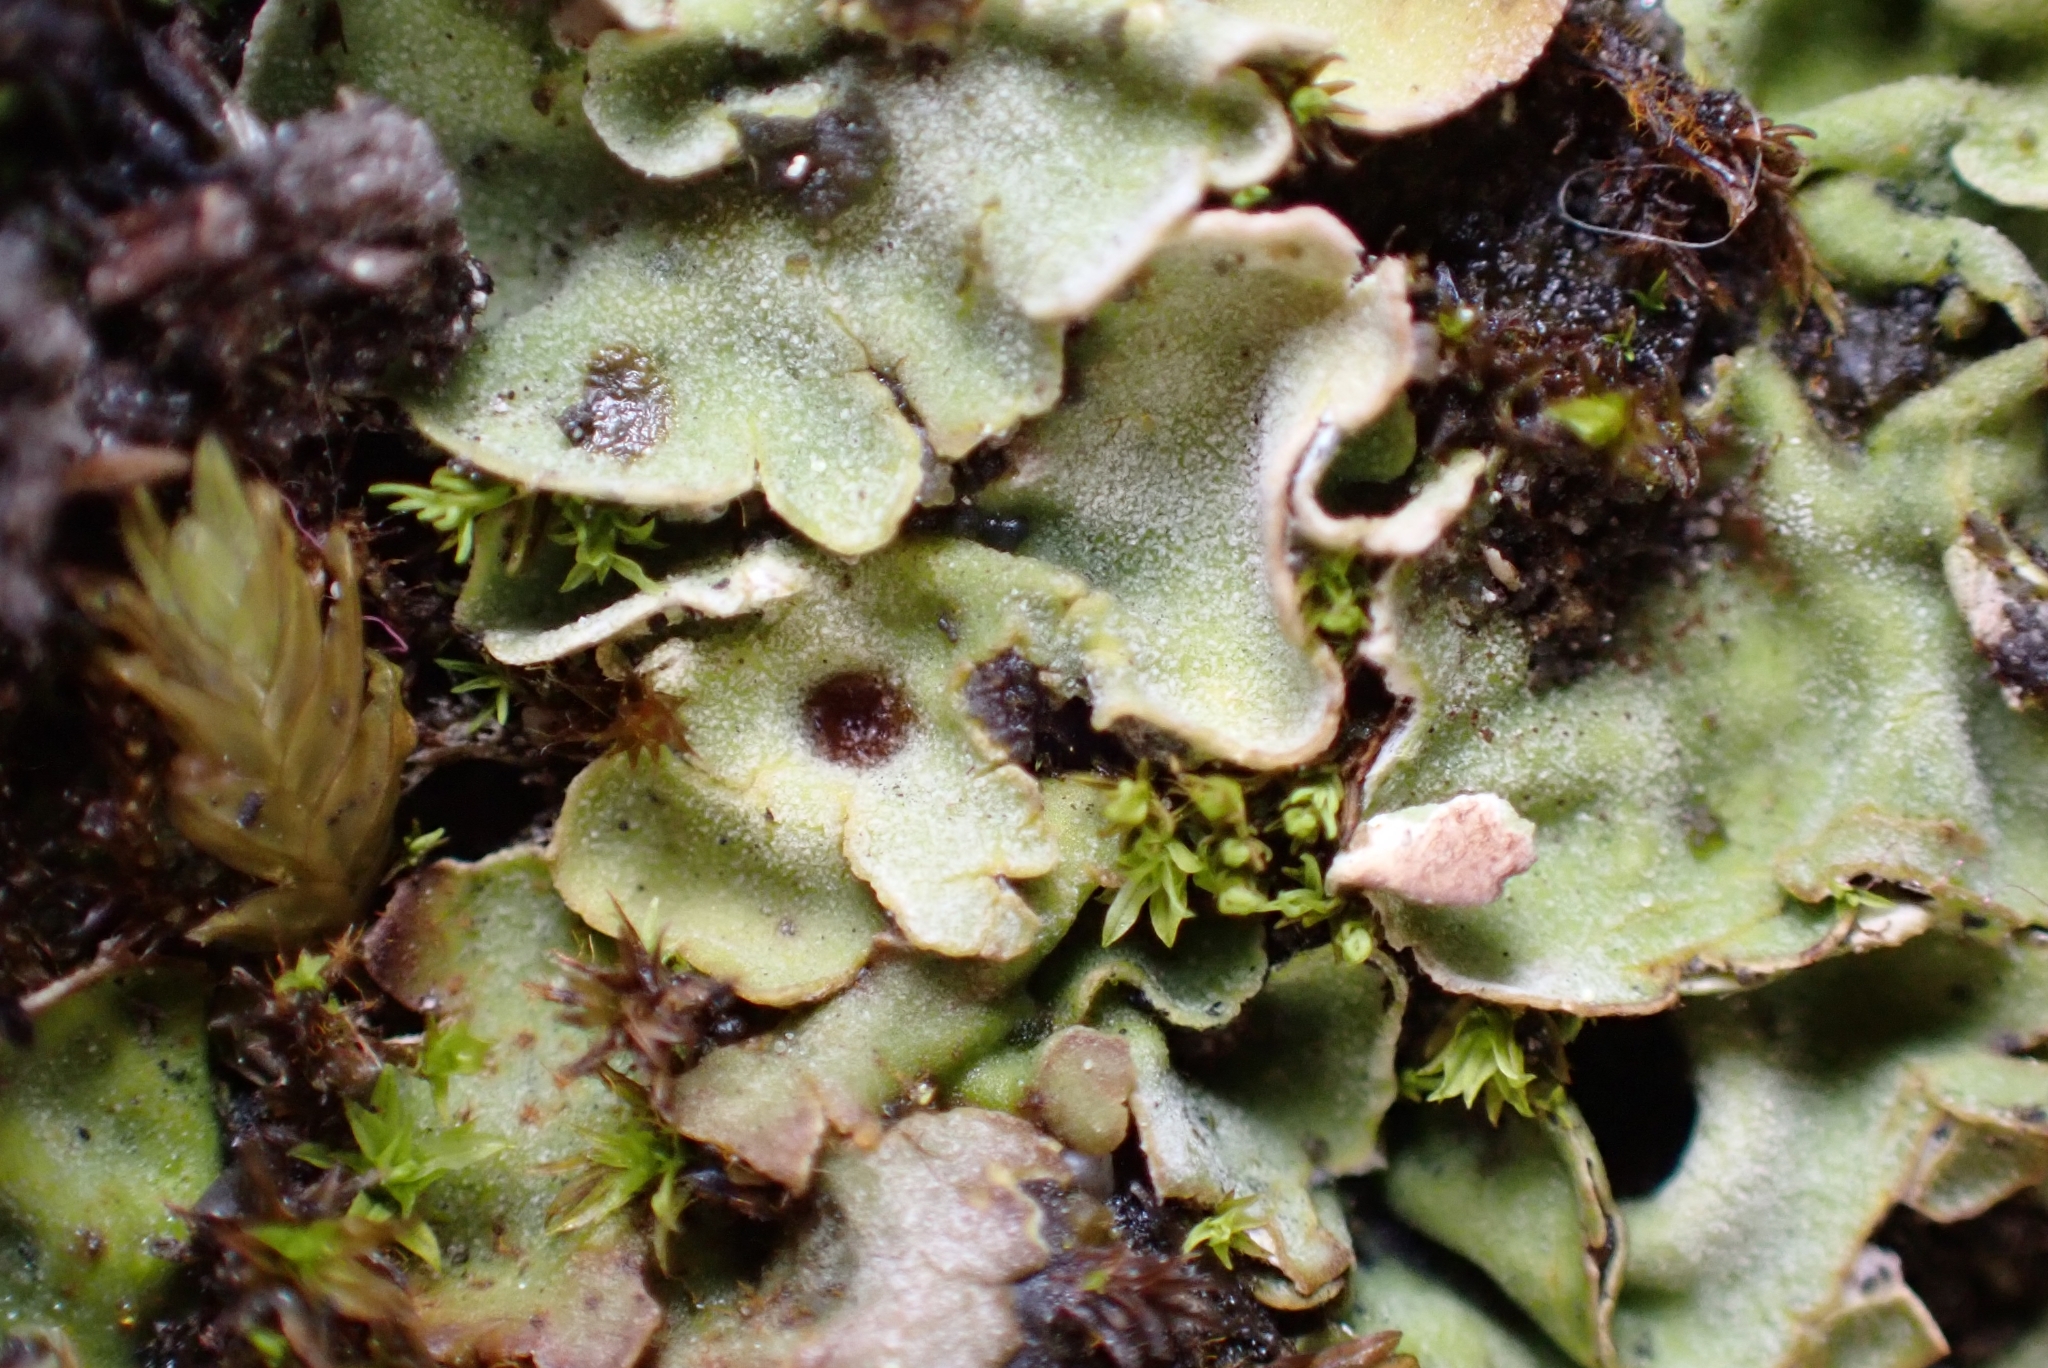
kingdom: Fungi
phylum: Ascomycota
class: Lecanoromycetes
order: Peltigerales
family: Peltigeraceae
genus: Solorina
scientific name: Solorina saccata
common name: Common chocolate chip lichen
